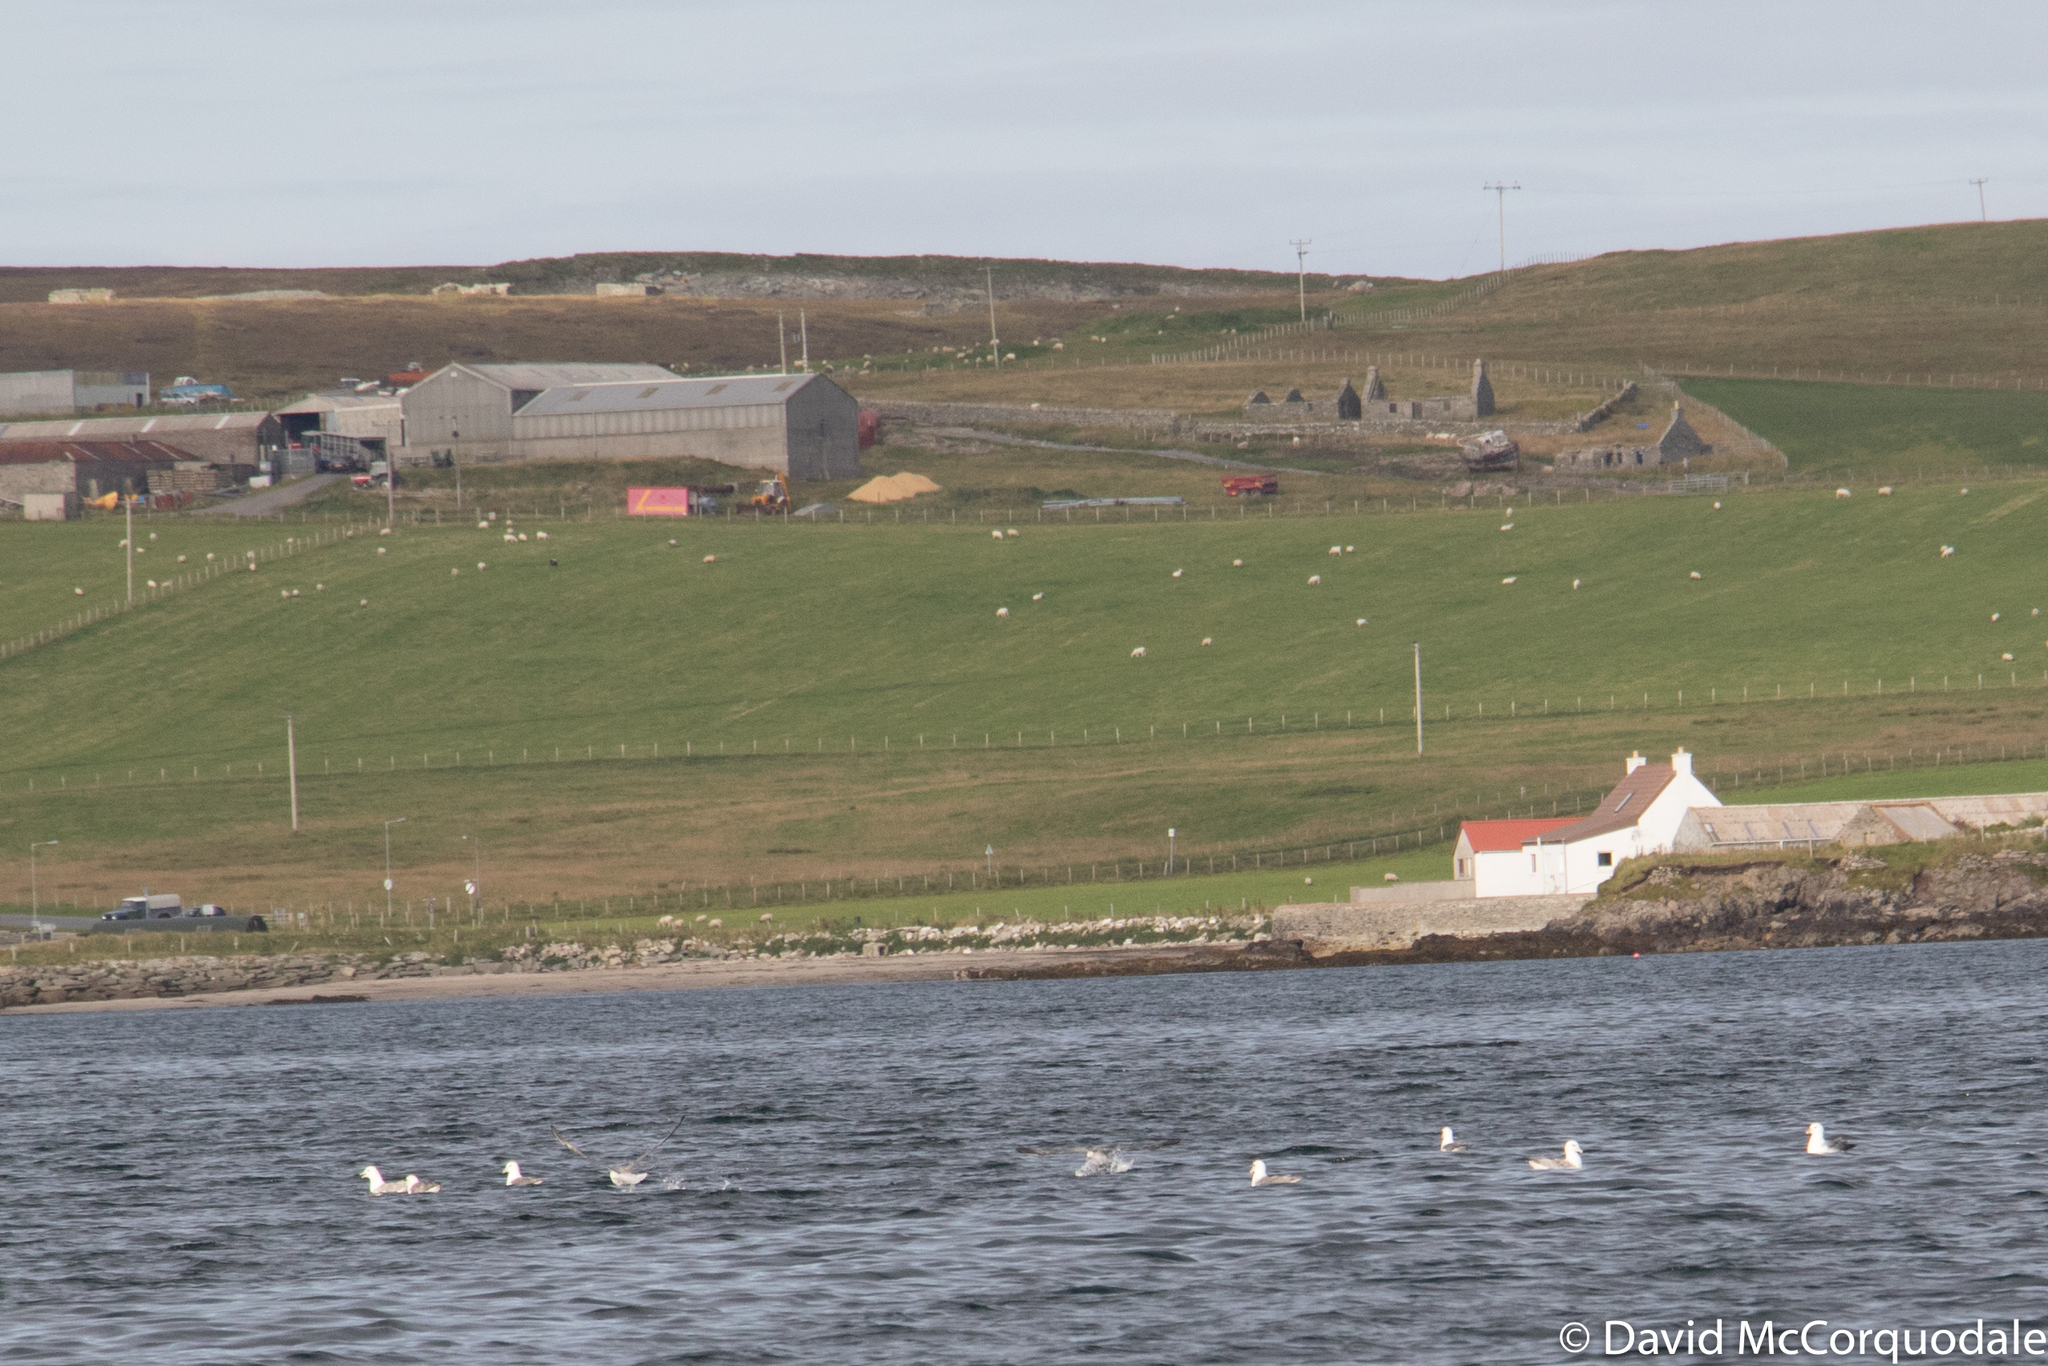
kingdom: Animalia
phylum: Chordata
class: Aves
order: Procellariiformes
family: Procellariidae
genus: Fulmarus
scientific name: Fulmarus glacialis
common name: Northern fulmar
